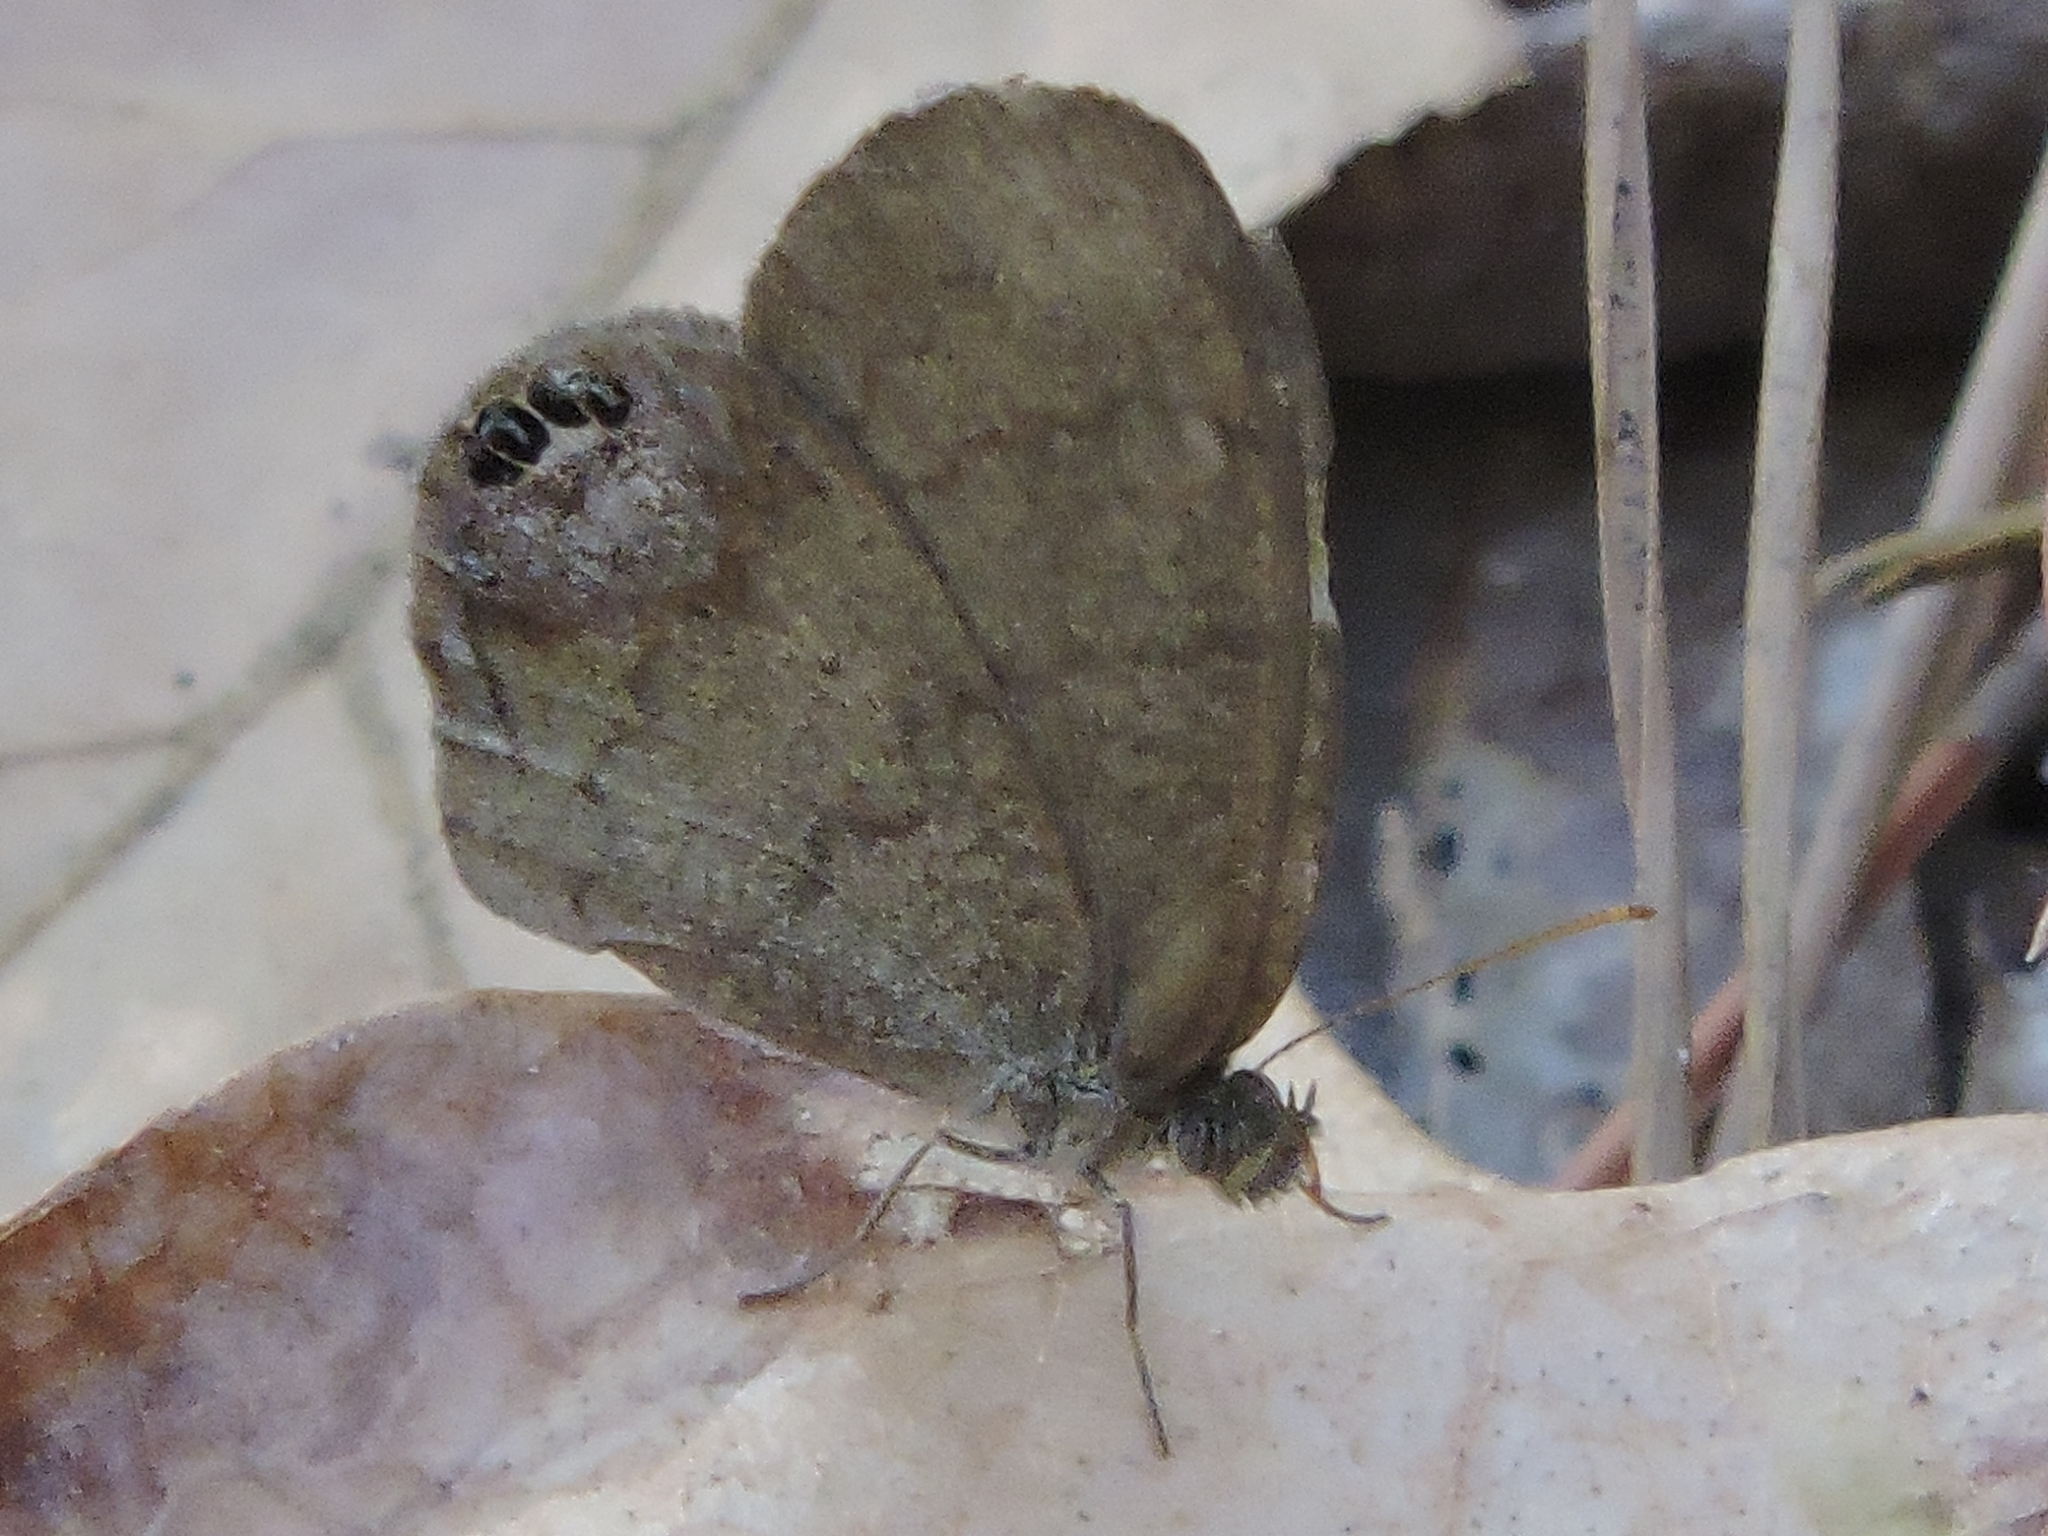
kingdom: Animalia
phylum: Arthropoda
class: Insecta
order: Lepidoptera
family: Nymphalidae
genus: Euptychia
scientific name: Euptychia cornelius
